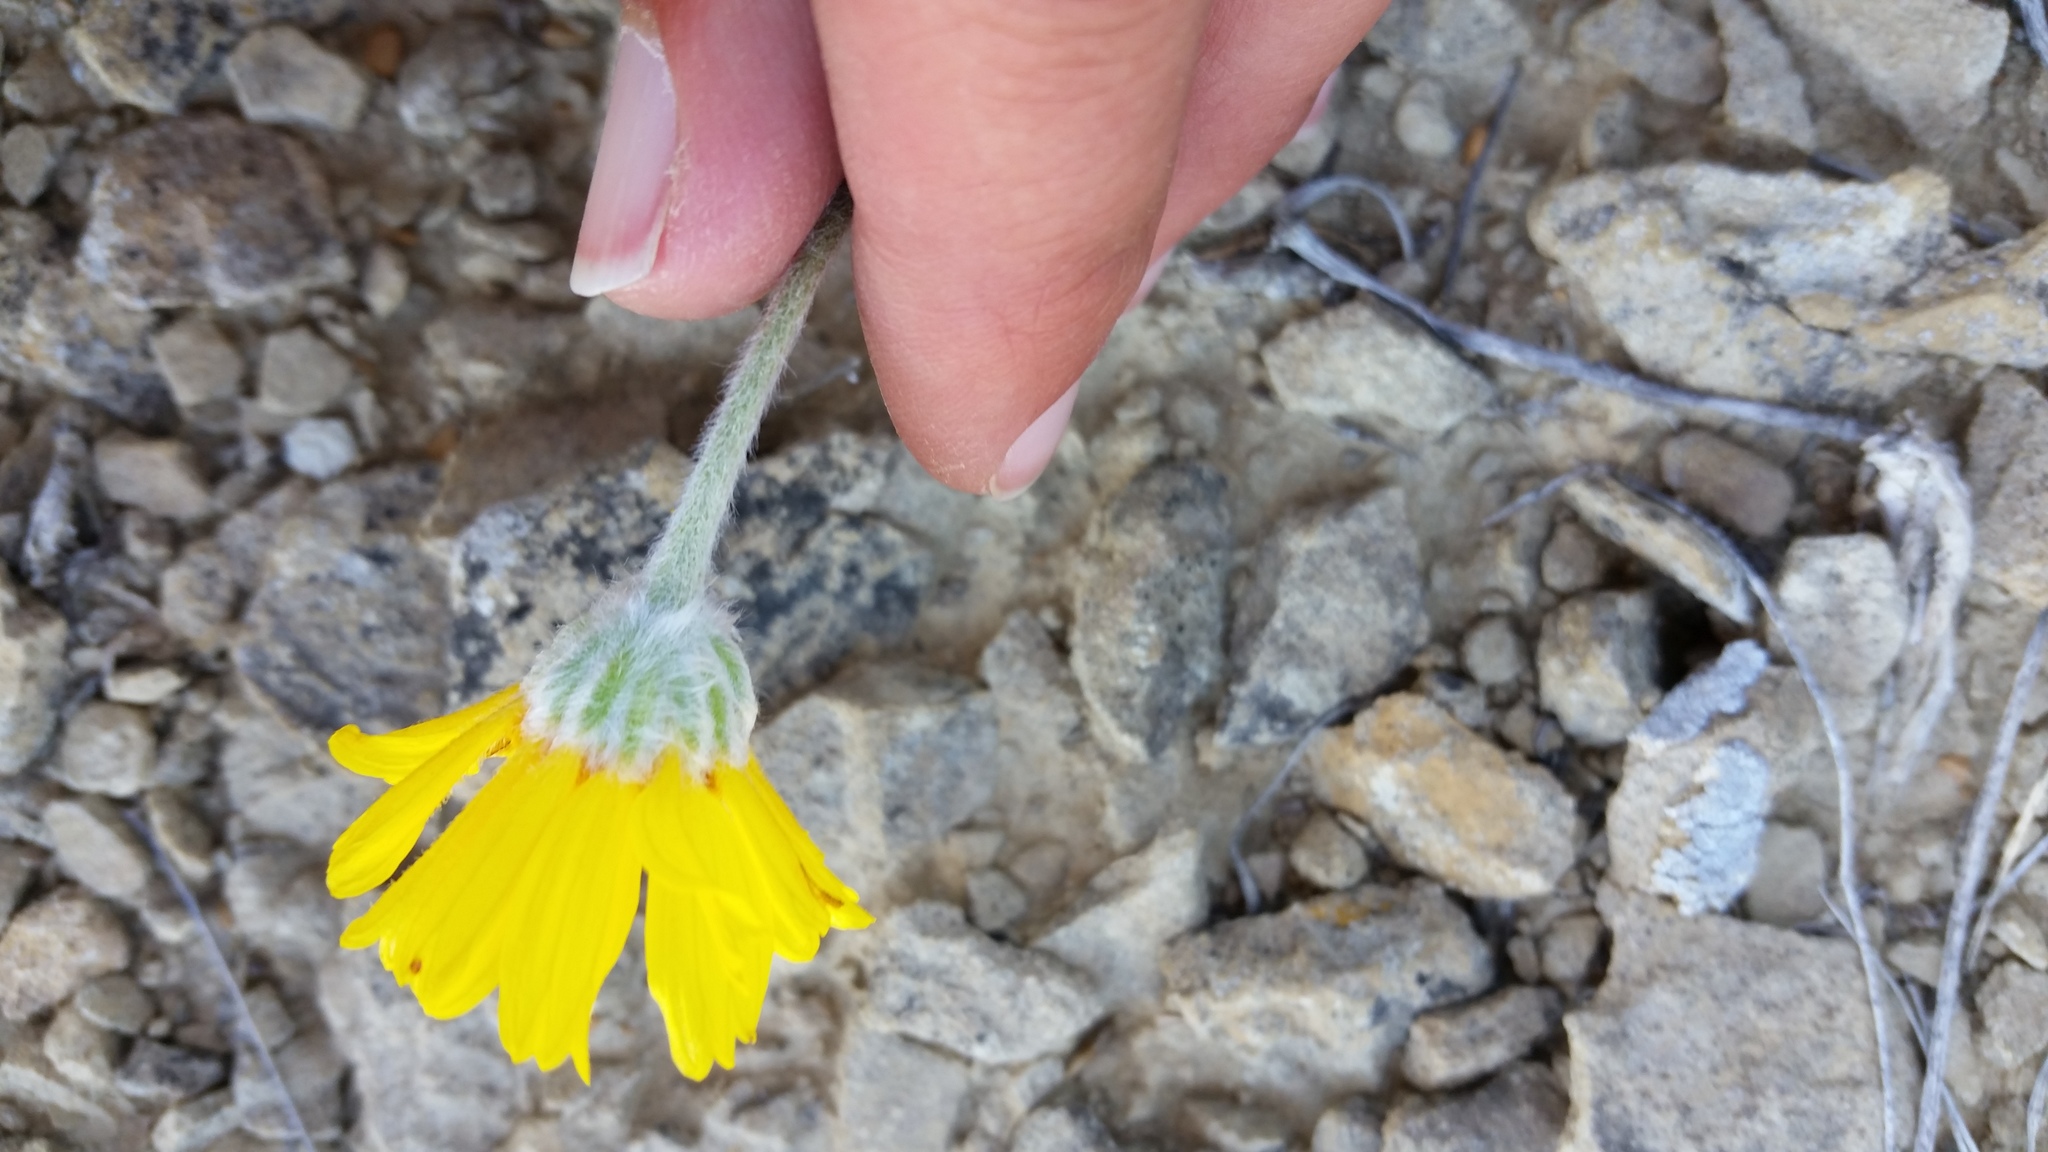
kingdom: Plantae
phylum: Tracheophyta
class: Magnoliopsida
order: Asterales
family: Asteraceae
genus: Tetraneuris
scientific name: Tetraneuris acaulis
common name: Butte marigold
